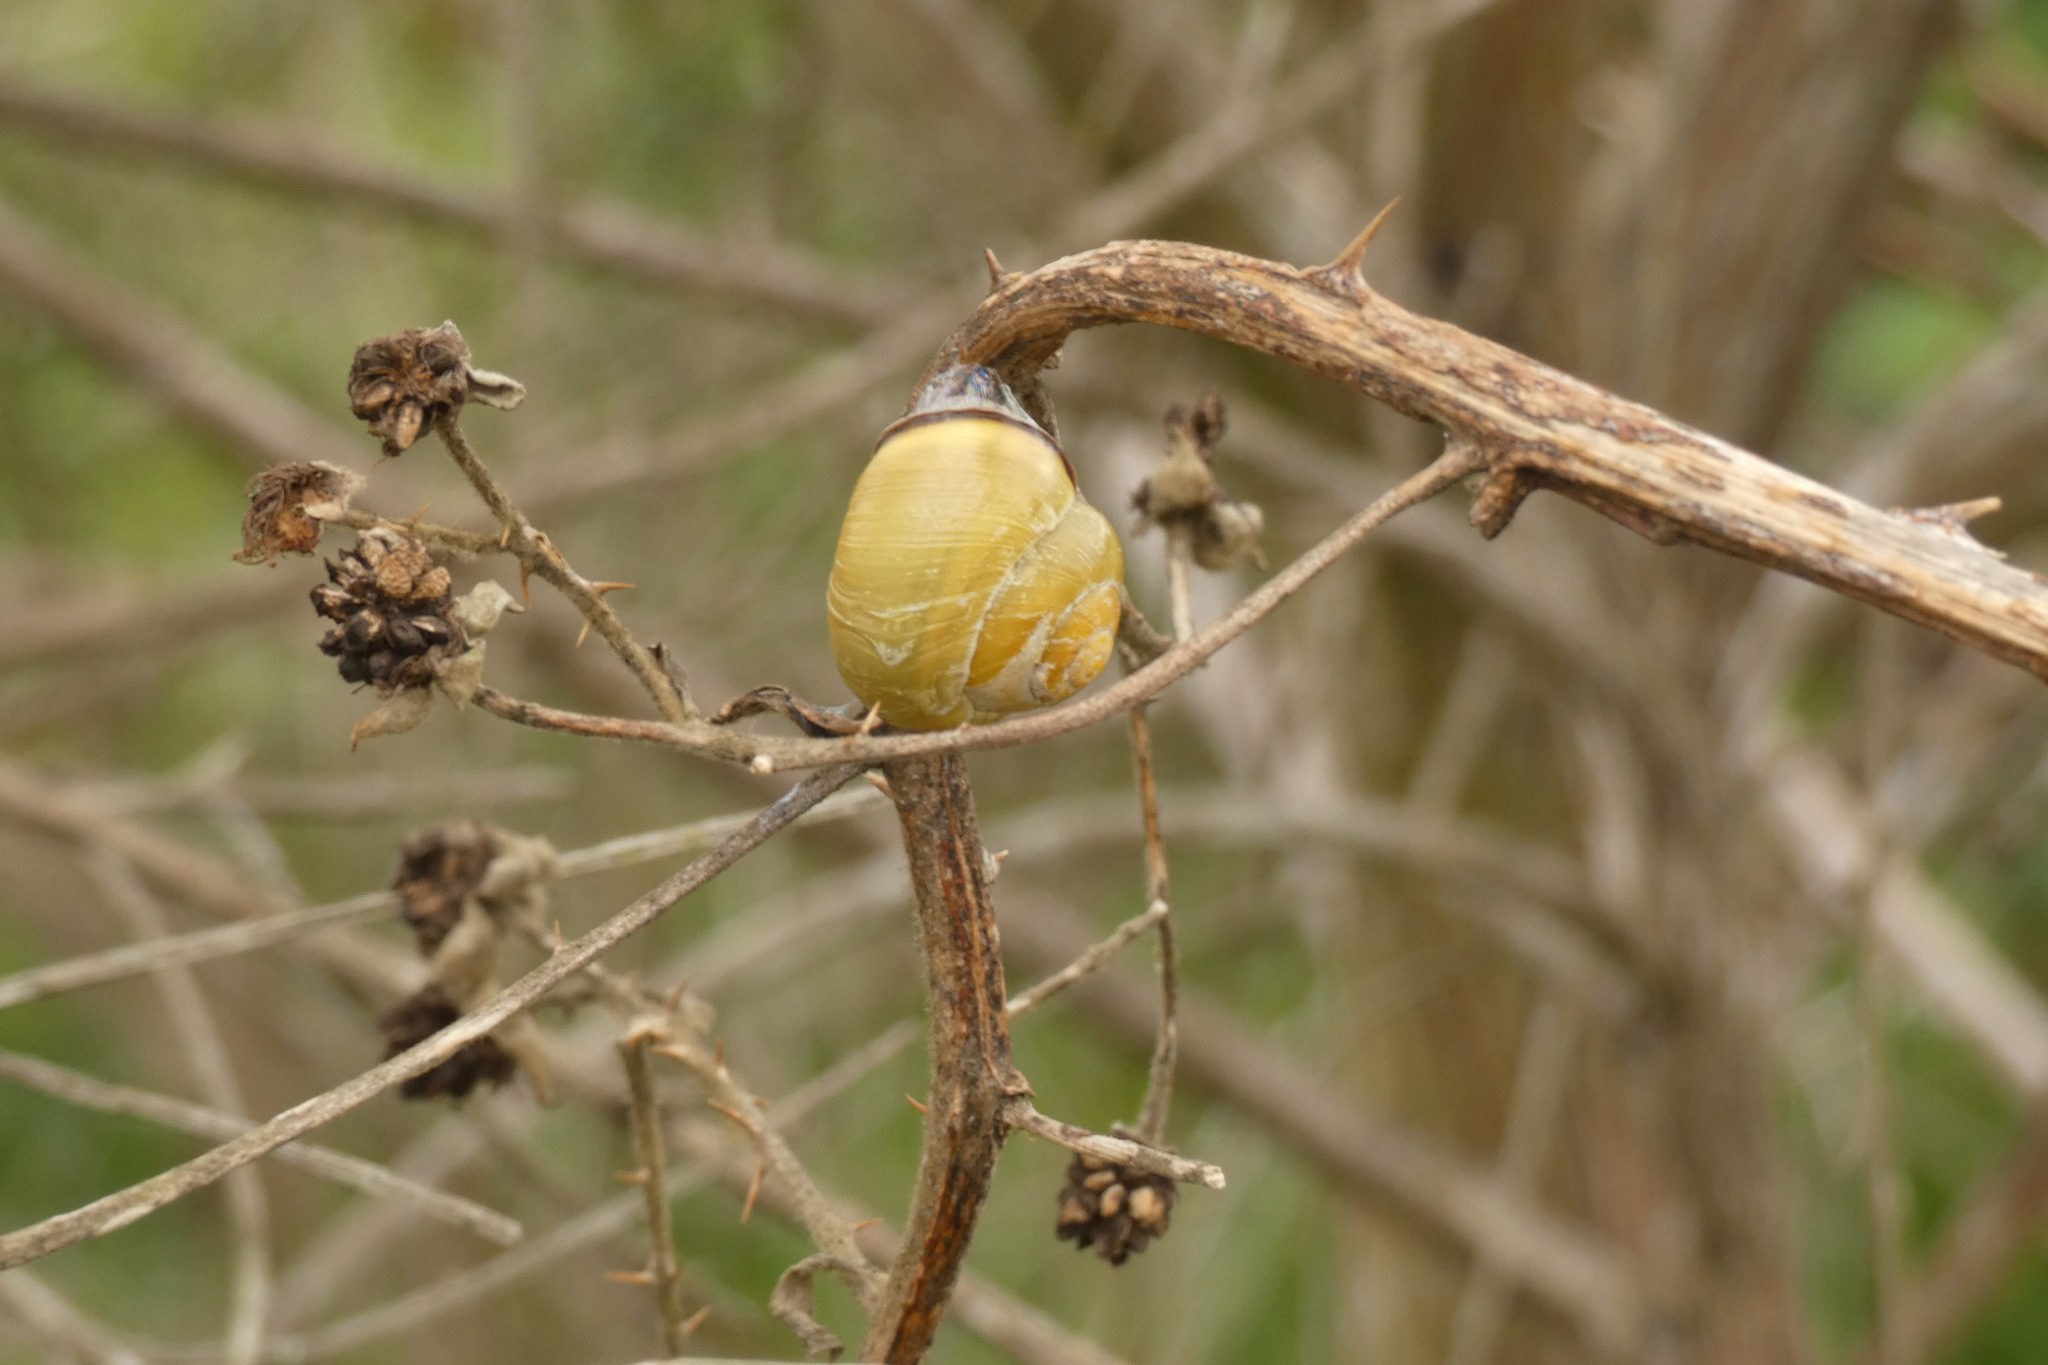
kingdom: Animalia
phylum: Mollusca
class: Gastropoda
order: Stylommatophora
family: Helicidae
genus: Cepaea
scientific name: Cepaea nemoralis
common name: Grovesnail
